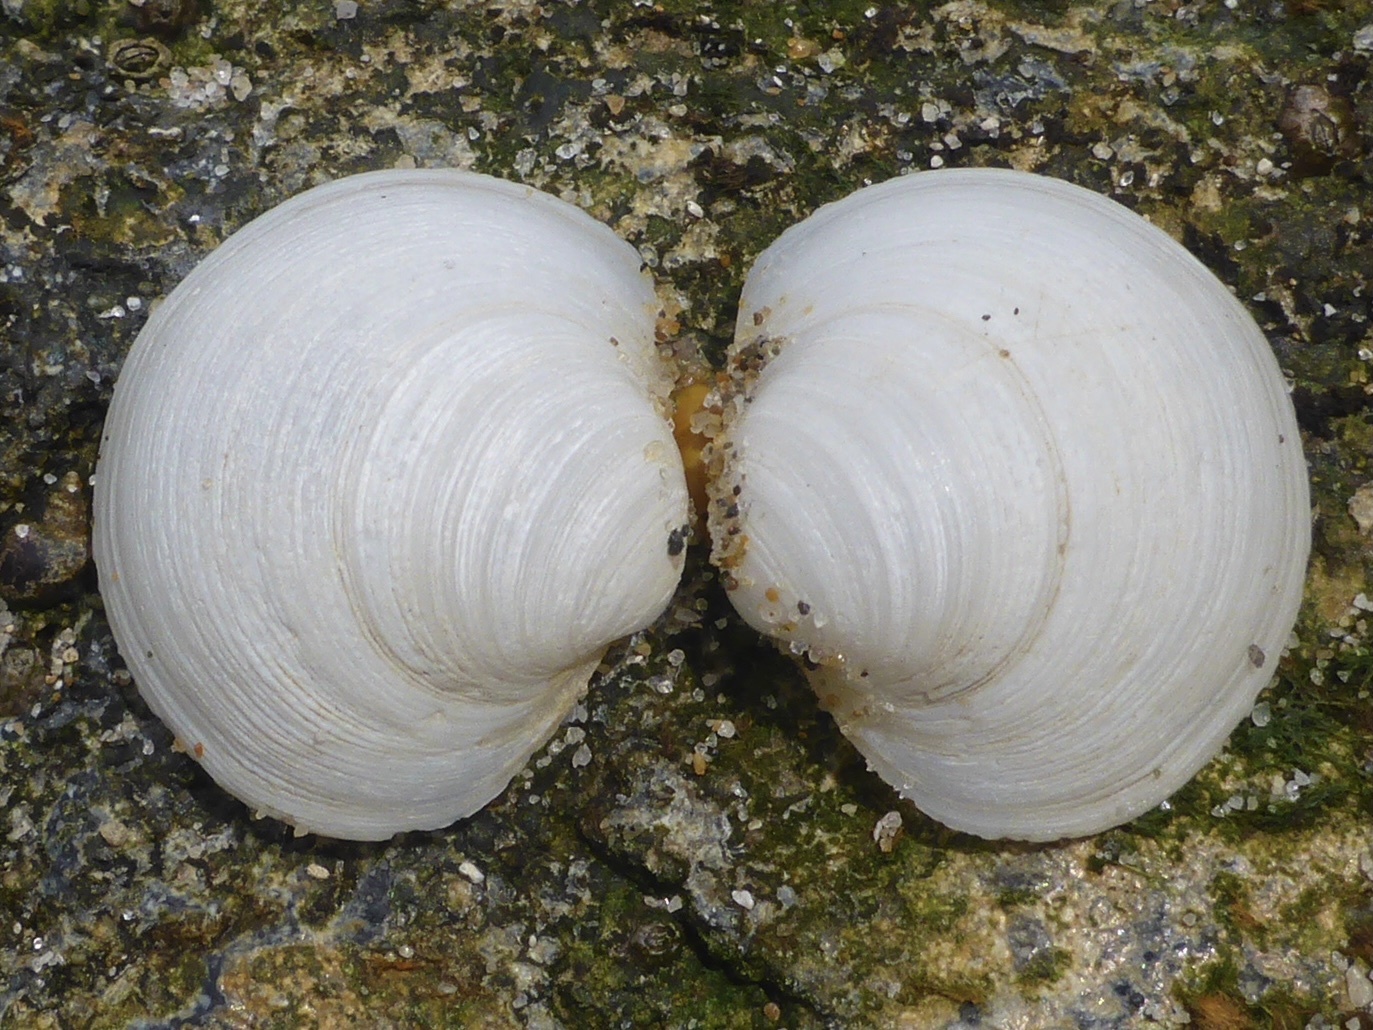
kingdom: Animalia
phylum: Mollusca
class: Bivalvia
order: Venerida
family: Ungulinidae
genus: Zemysina
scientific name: Zemysina orbella
